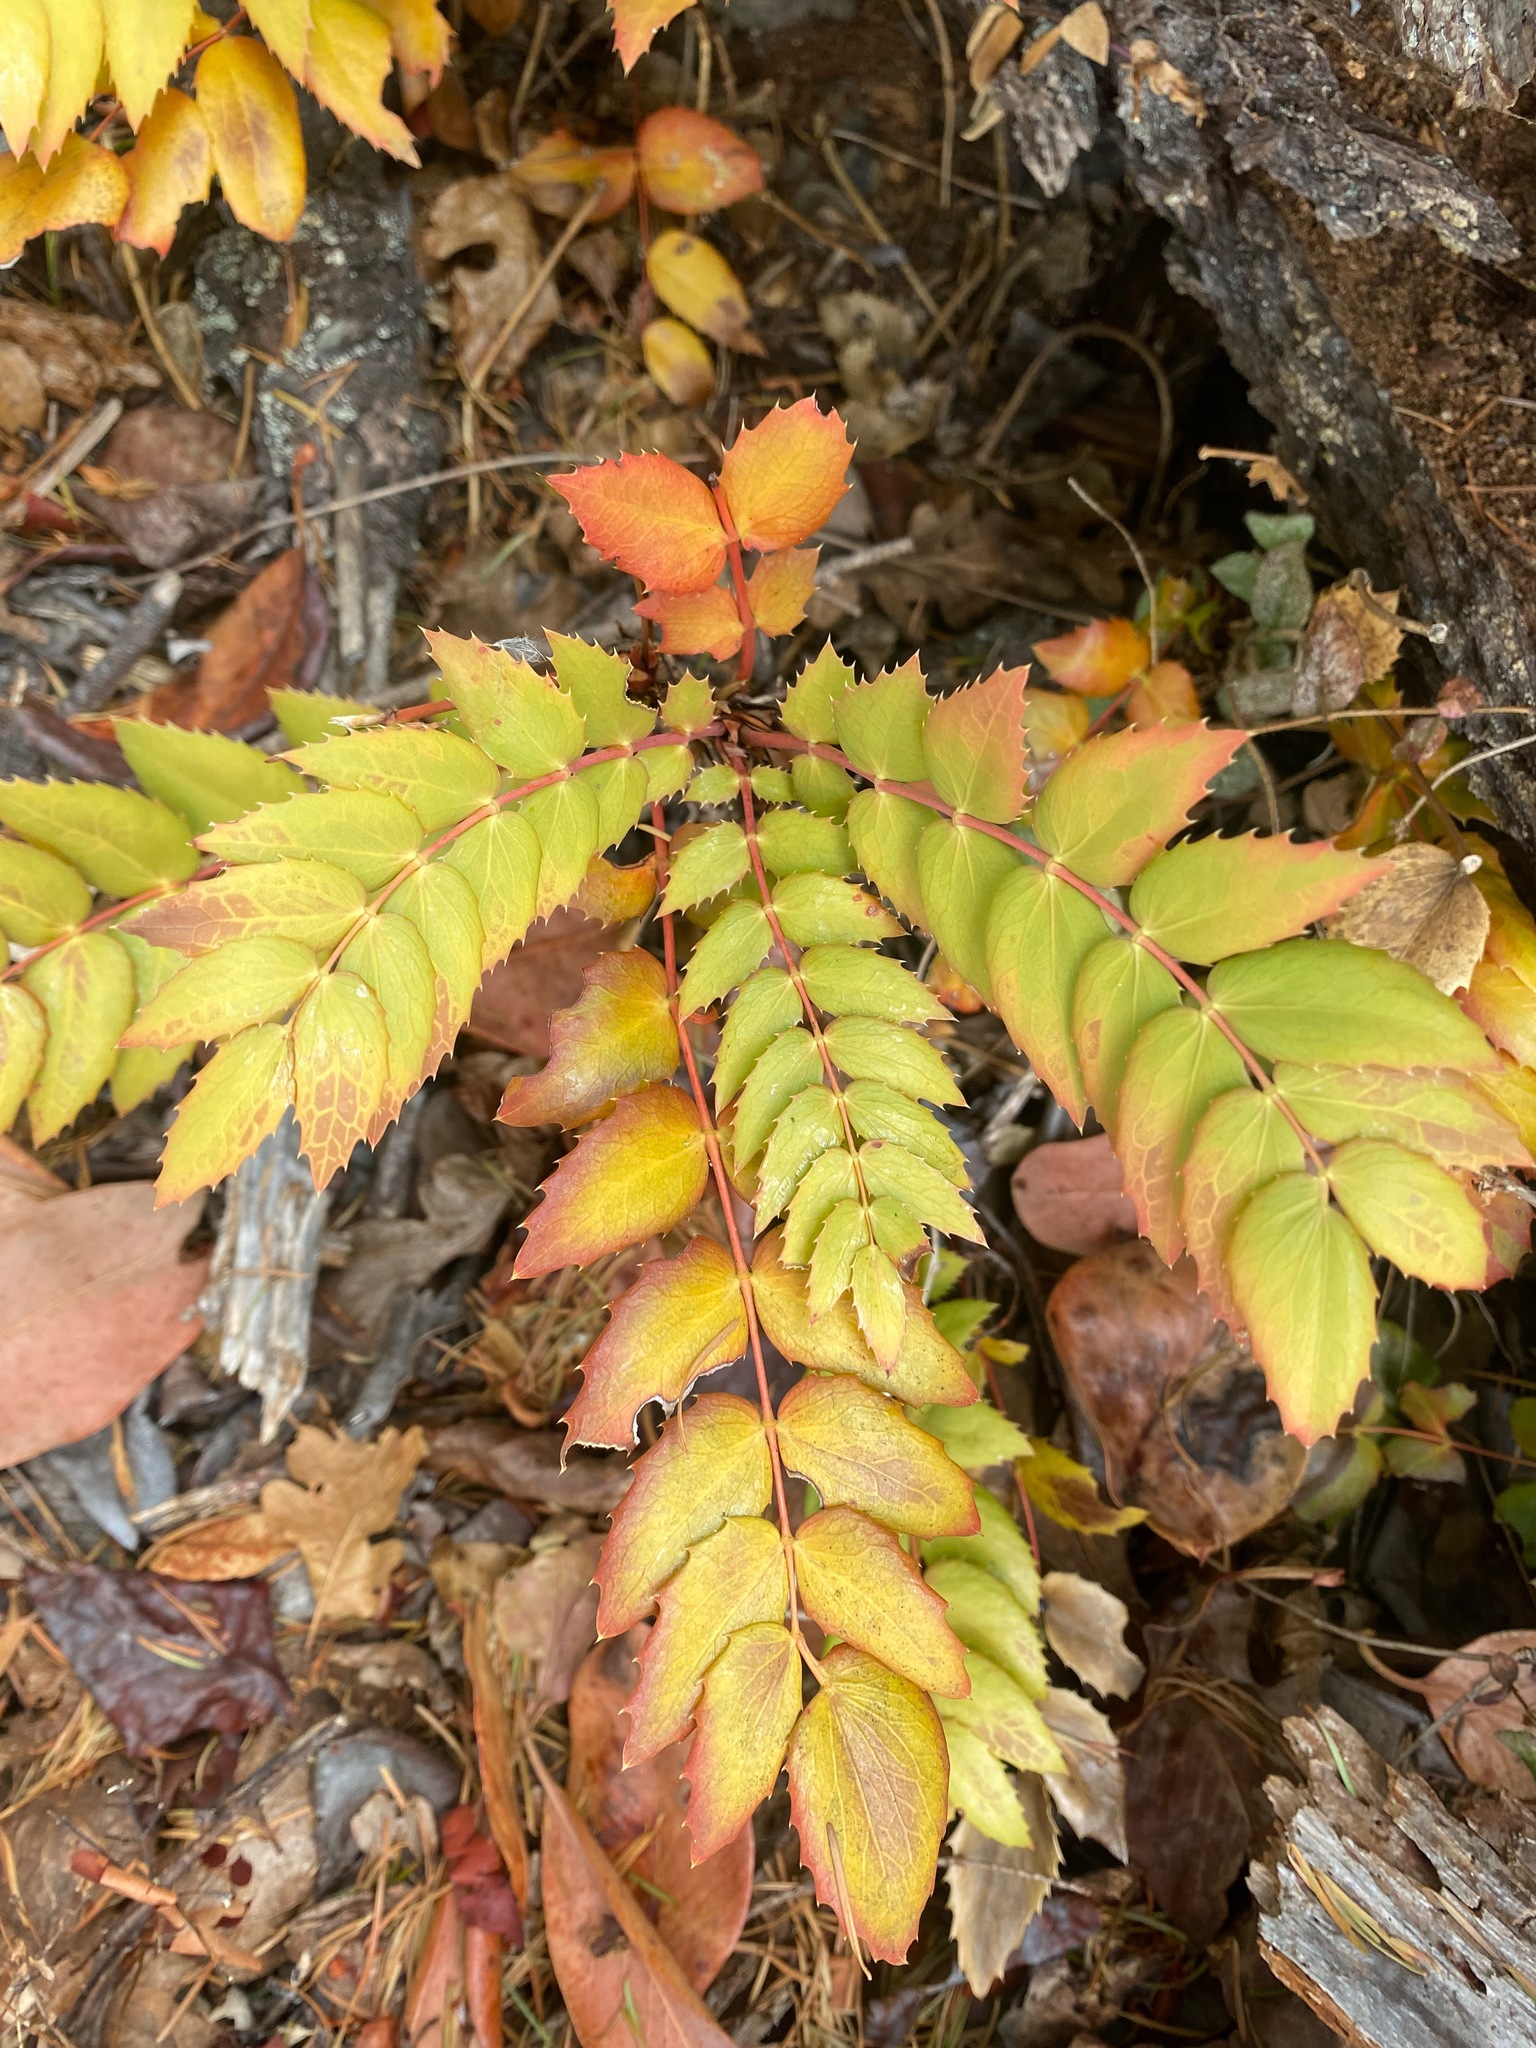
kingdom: Plantae
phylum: Tracheophyta
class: Magnoliopsida
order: Ranunculales
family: Berberidaceae
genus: Mahonia
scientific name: Mahonia nervosa
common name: Cascade oregon-grape
